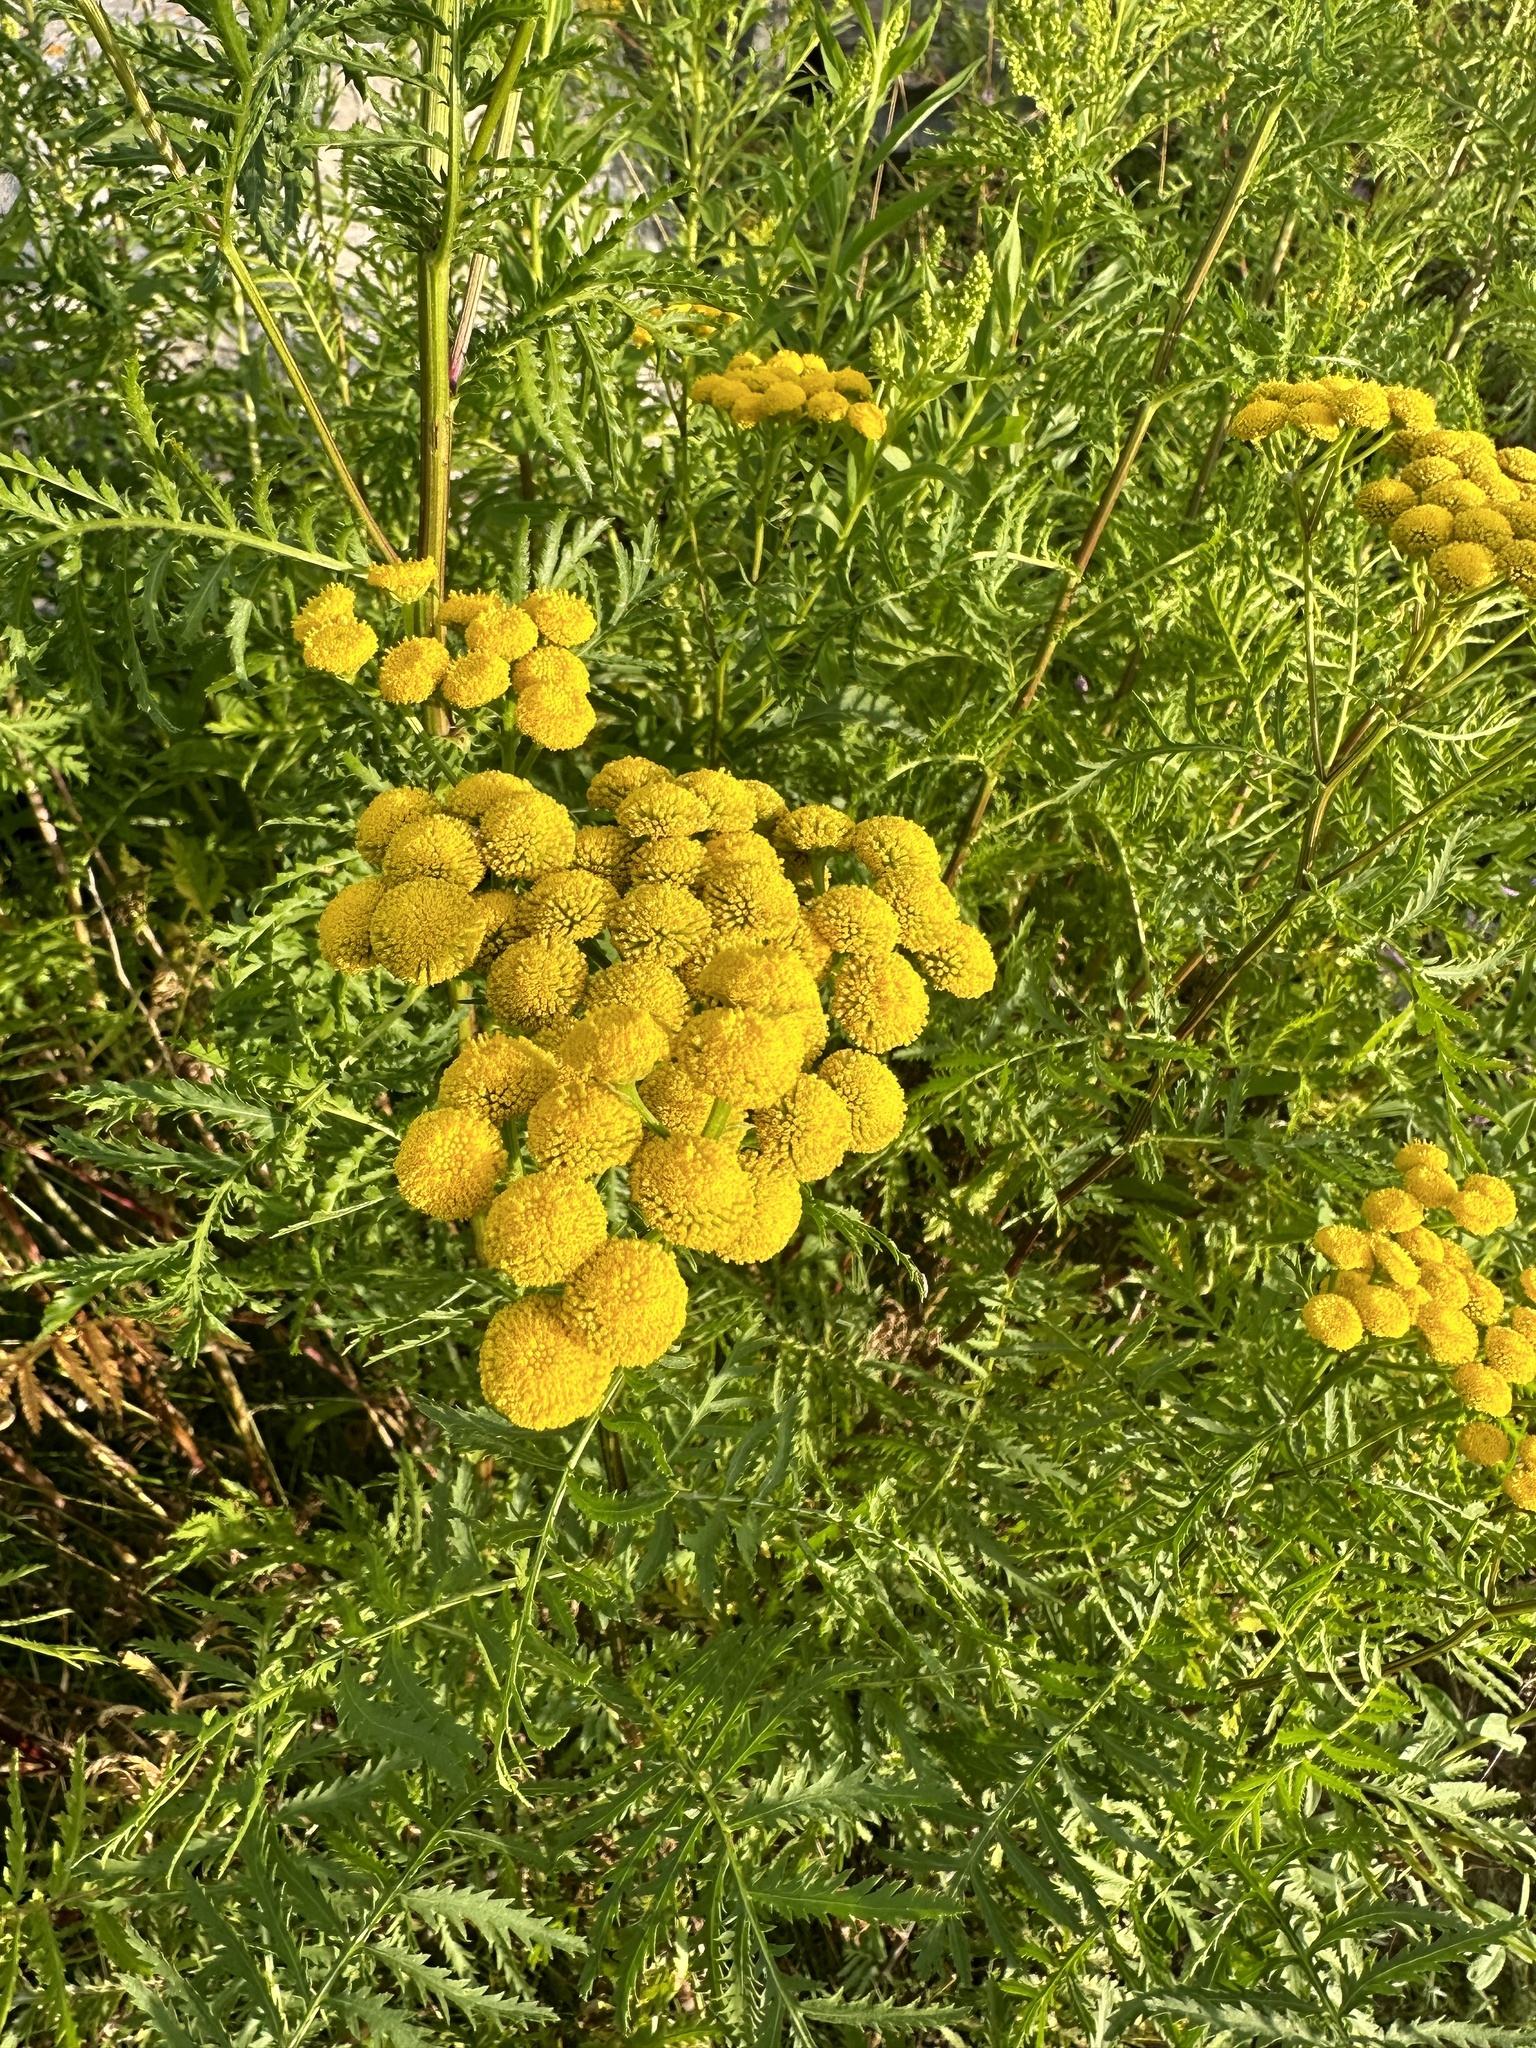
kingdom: Plantae
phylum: Tracheophyta
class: Magnoliopsida
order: Asterales
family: Asteraceae
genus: Tanacetum
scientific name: Tanacetum vulgare
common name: Common tansy
